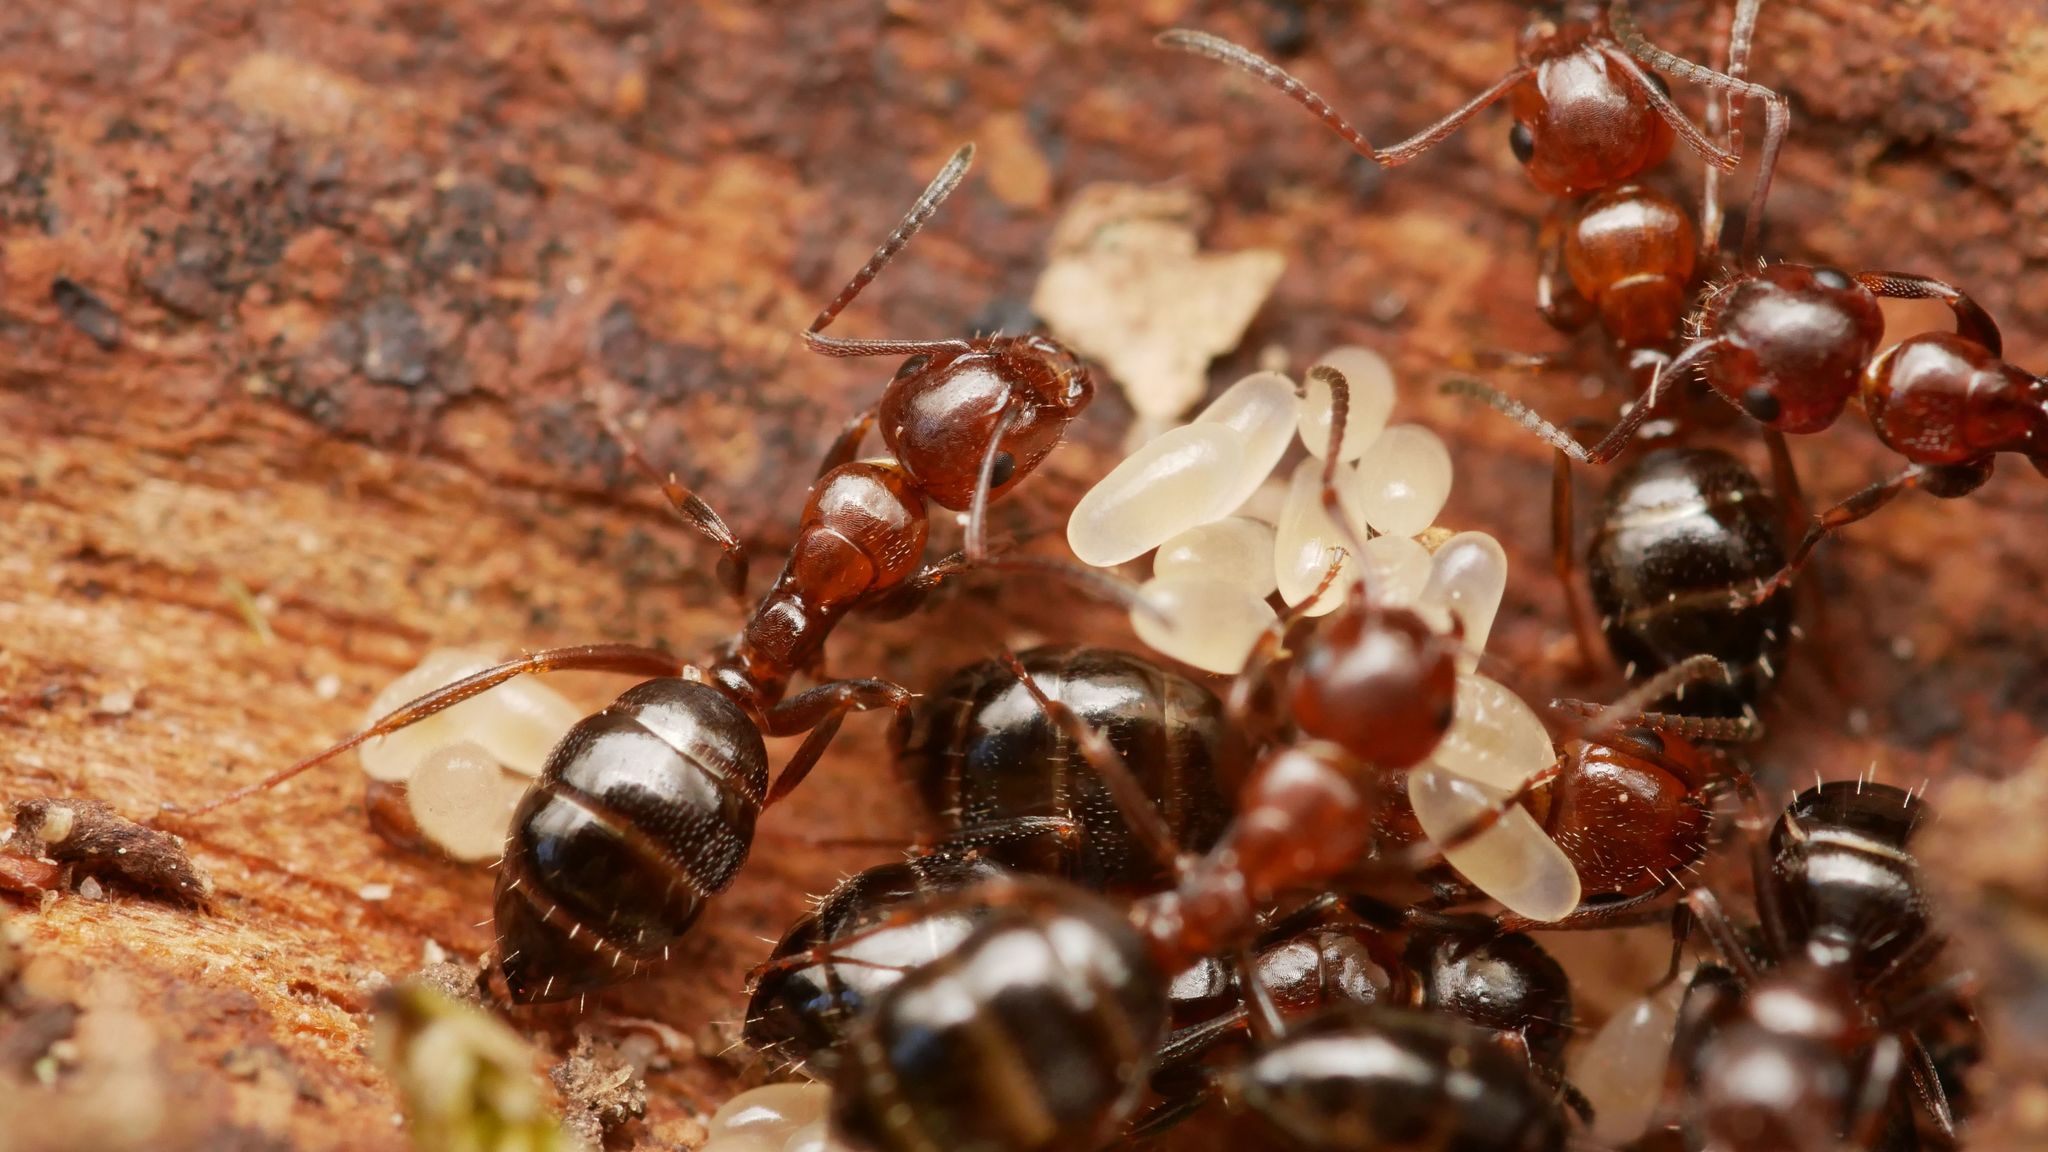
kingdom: Animalia
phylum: Arthropoda
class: Insecta
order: Hymenoptera
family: Formicidae
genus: Camponotus
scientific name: Camponotus lateralis
